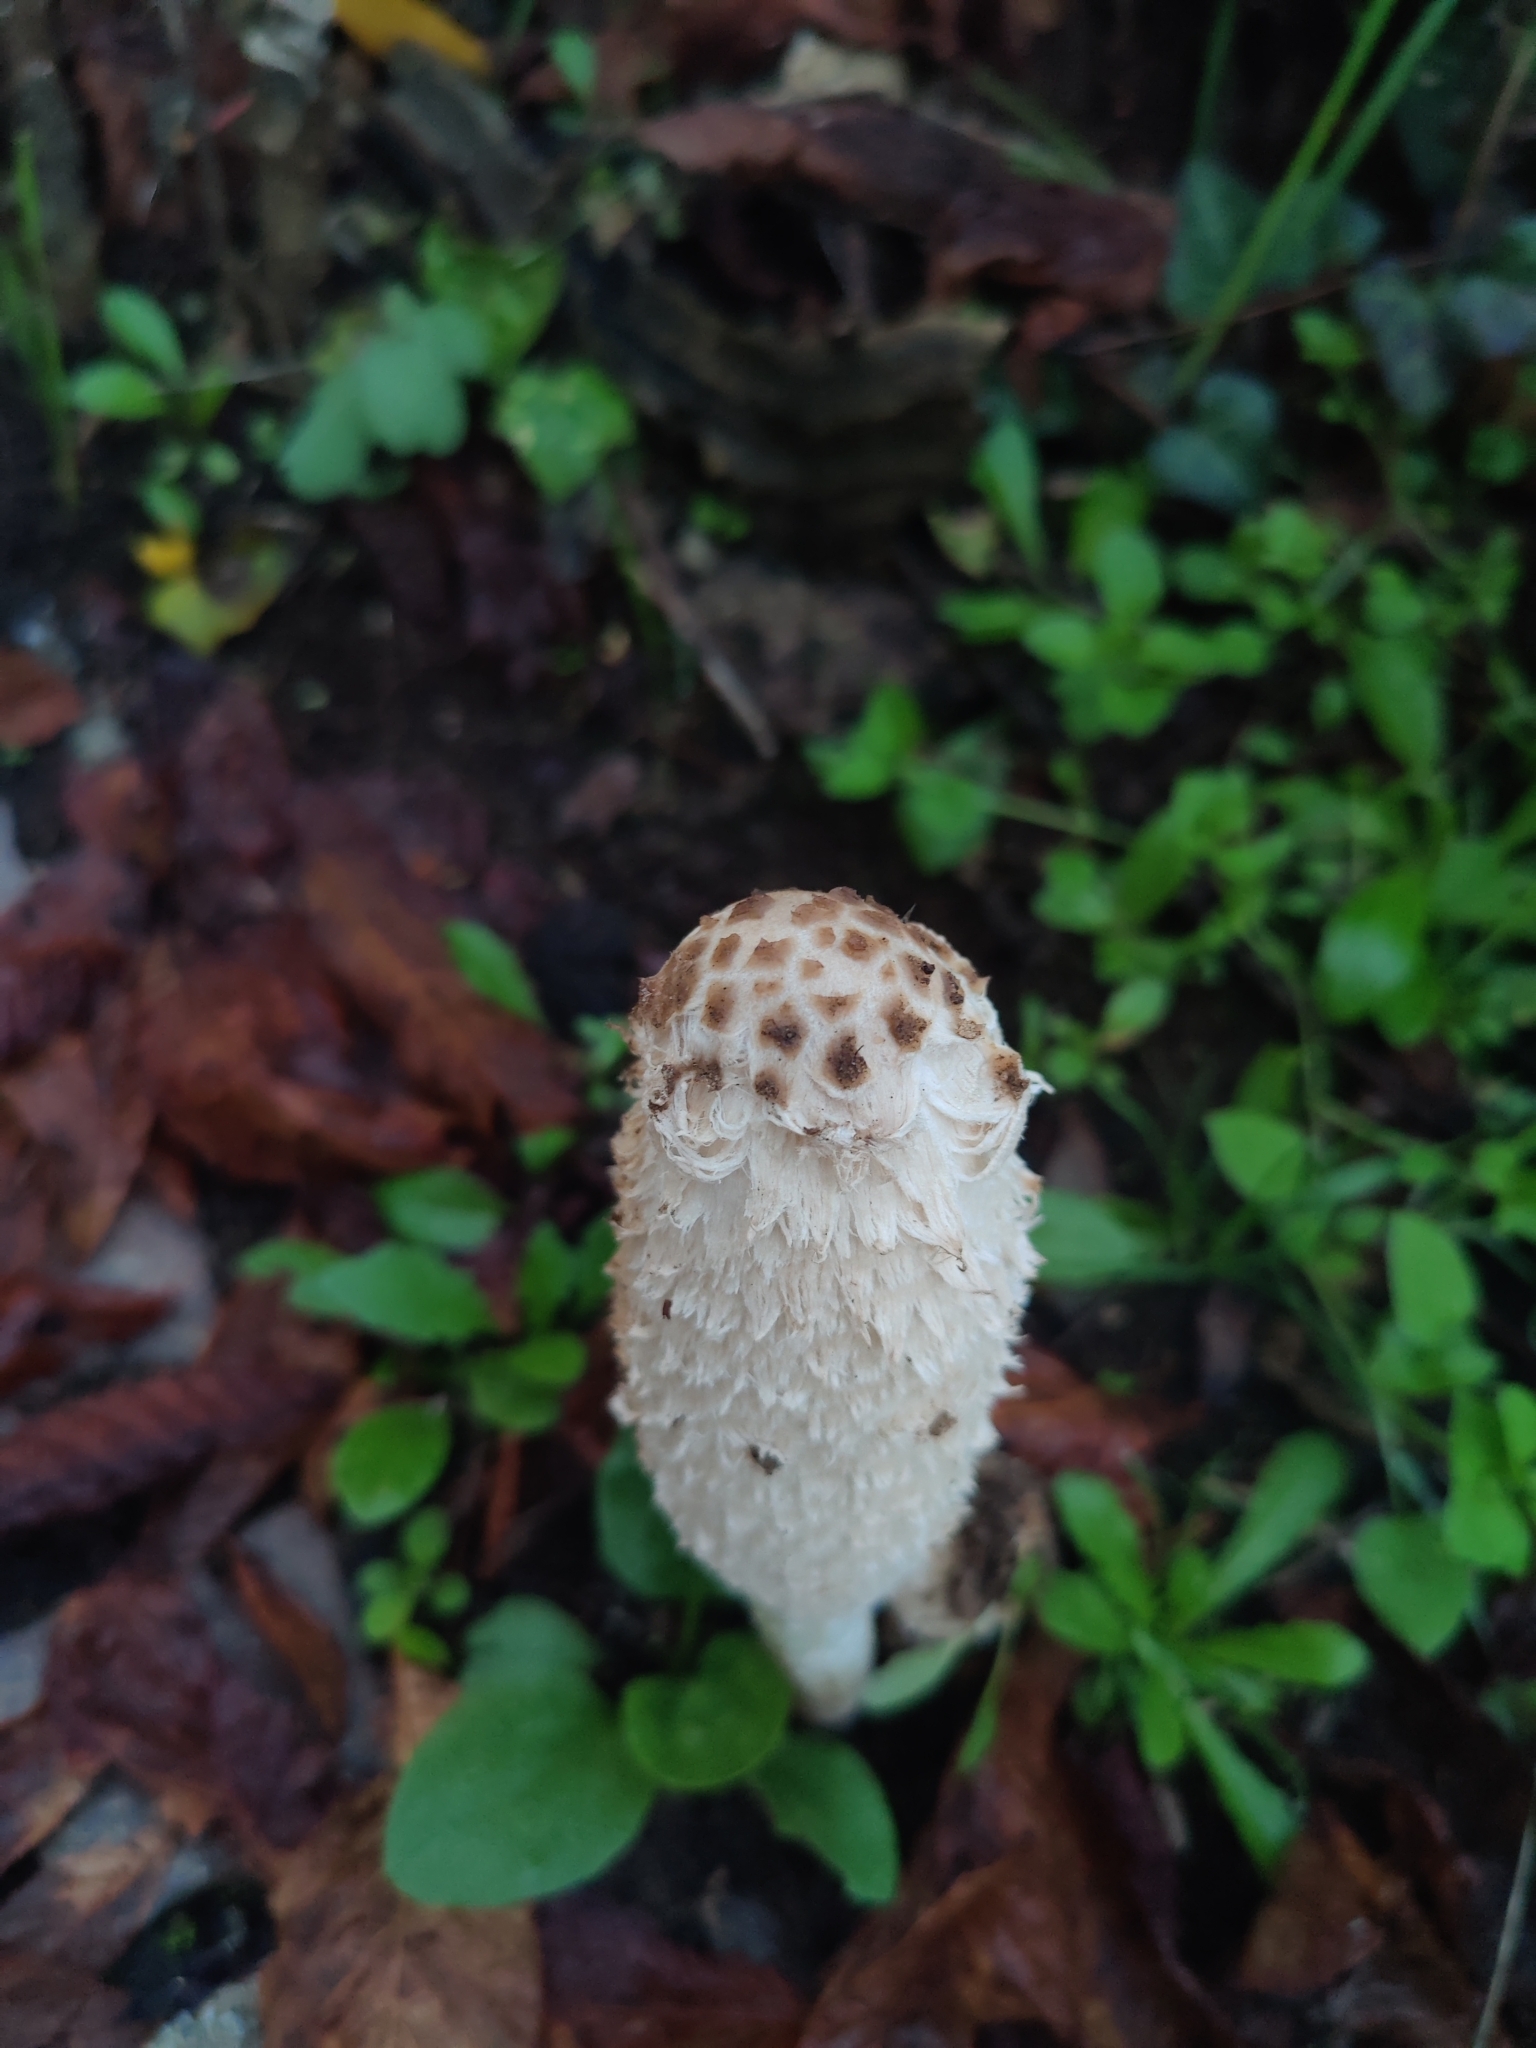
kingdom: Fungi
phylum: Basidiomycota
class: Agaricomycetes
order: Agaricales
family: Agaricaceae
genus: Coprinus
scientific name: Coprinus comatus
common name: Lawyer's wig
